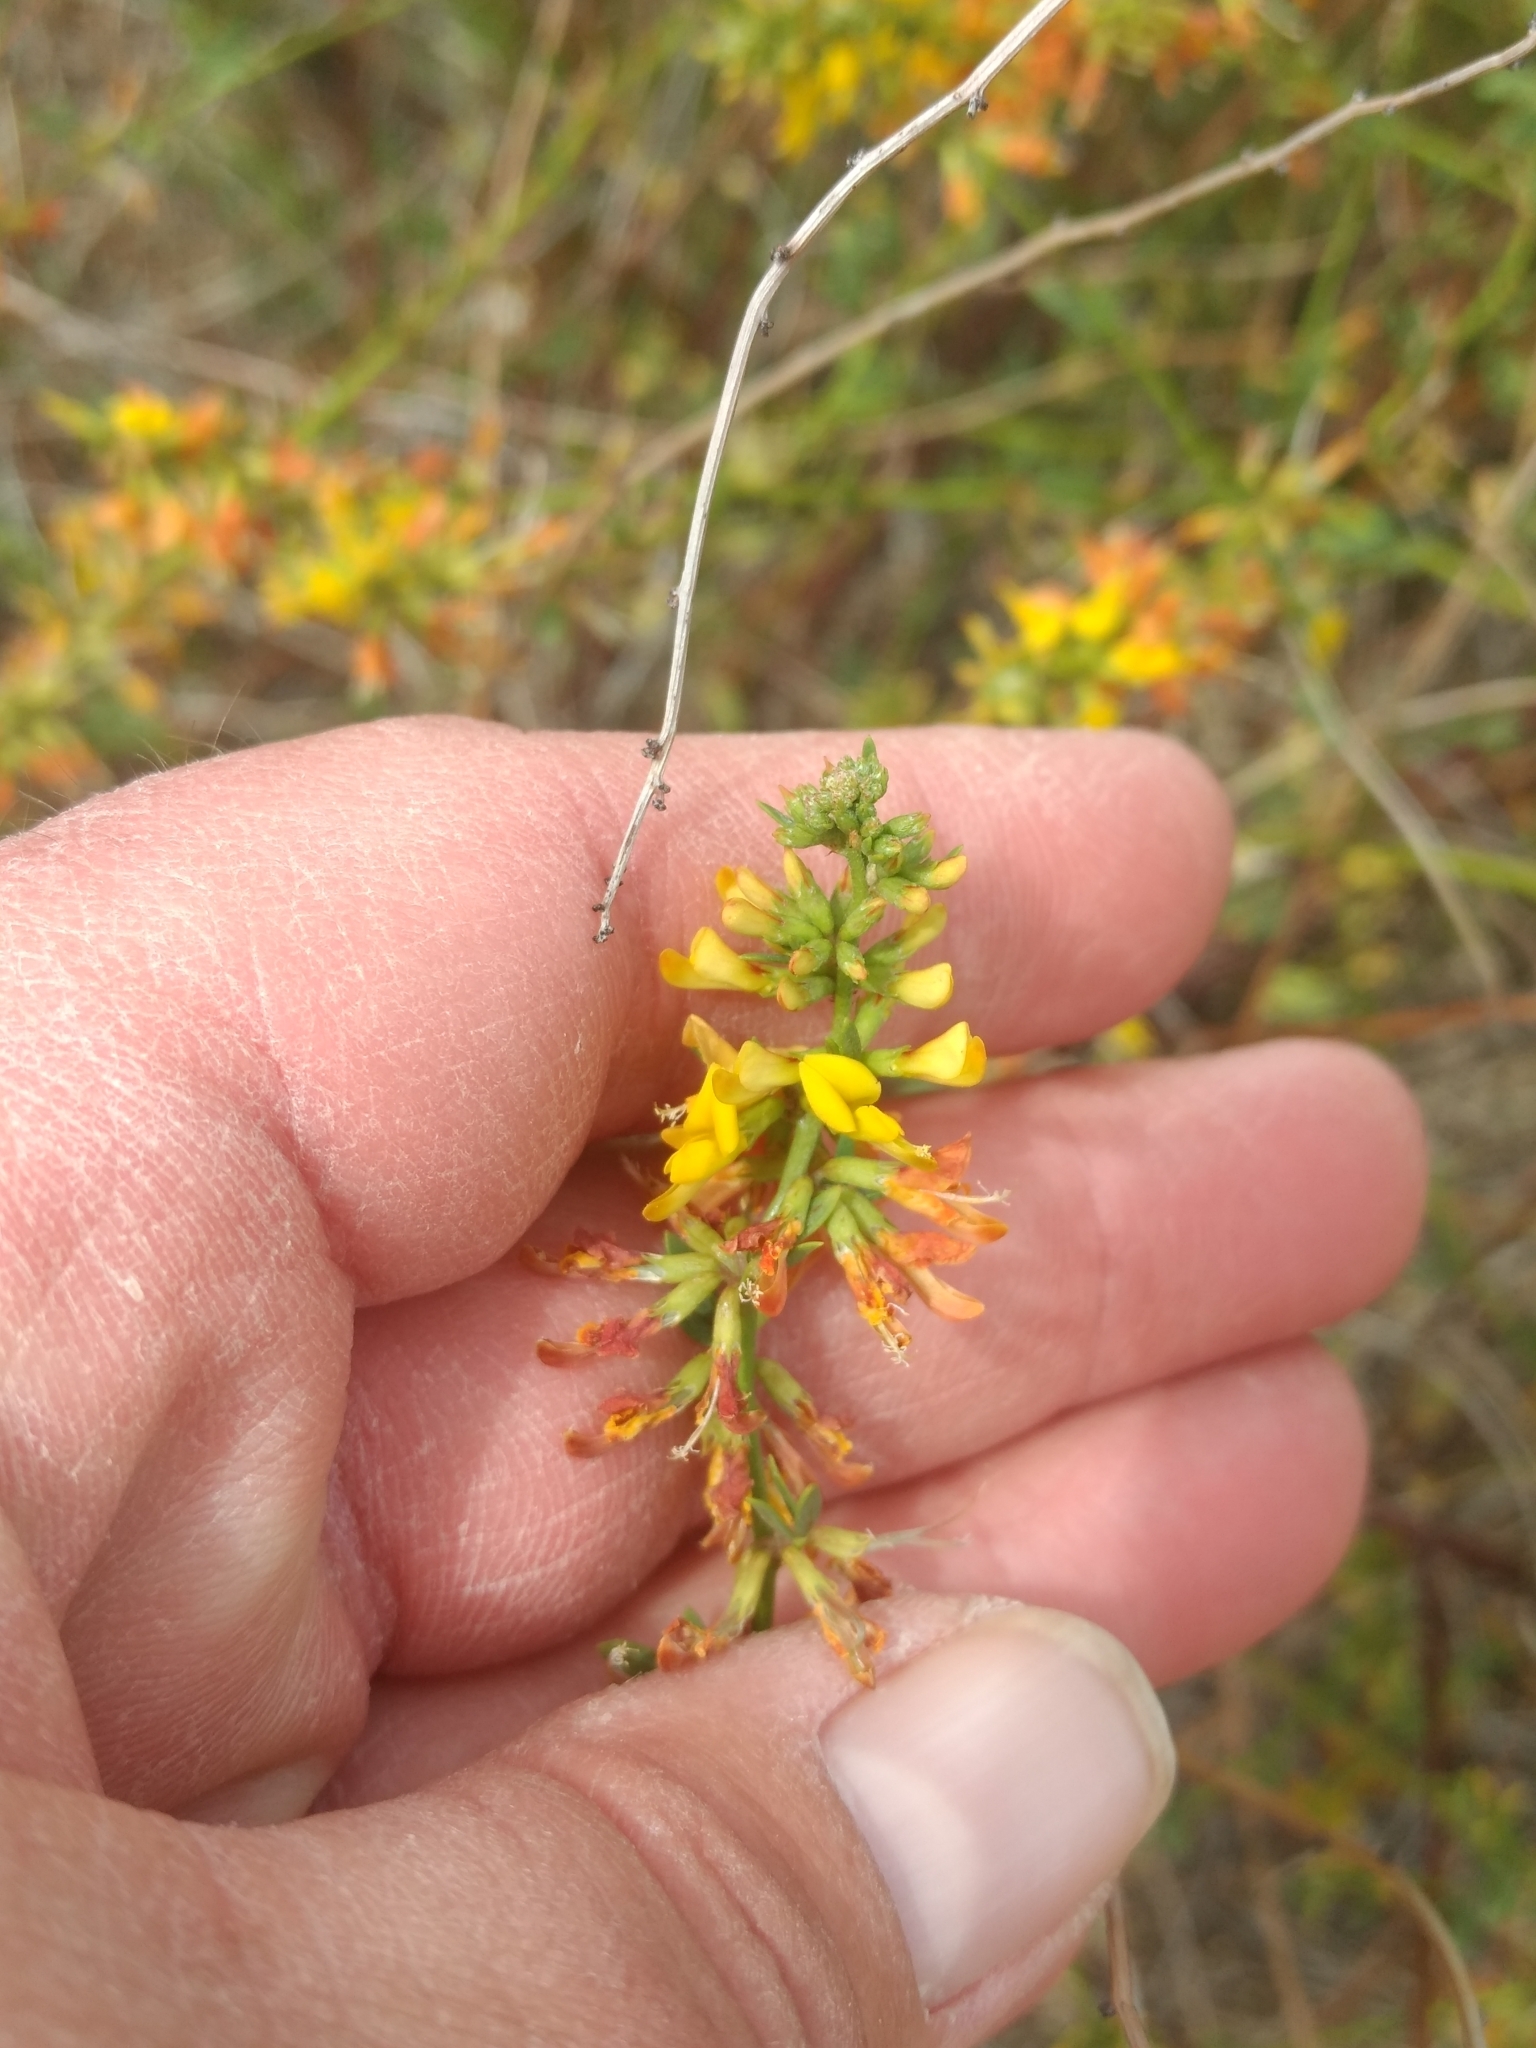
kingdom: Plantae
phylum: Tracheophyta
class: Magnoliopsida
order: Fabales
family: Fabaceae
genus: Acmispon
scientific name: Acmispon glaber
